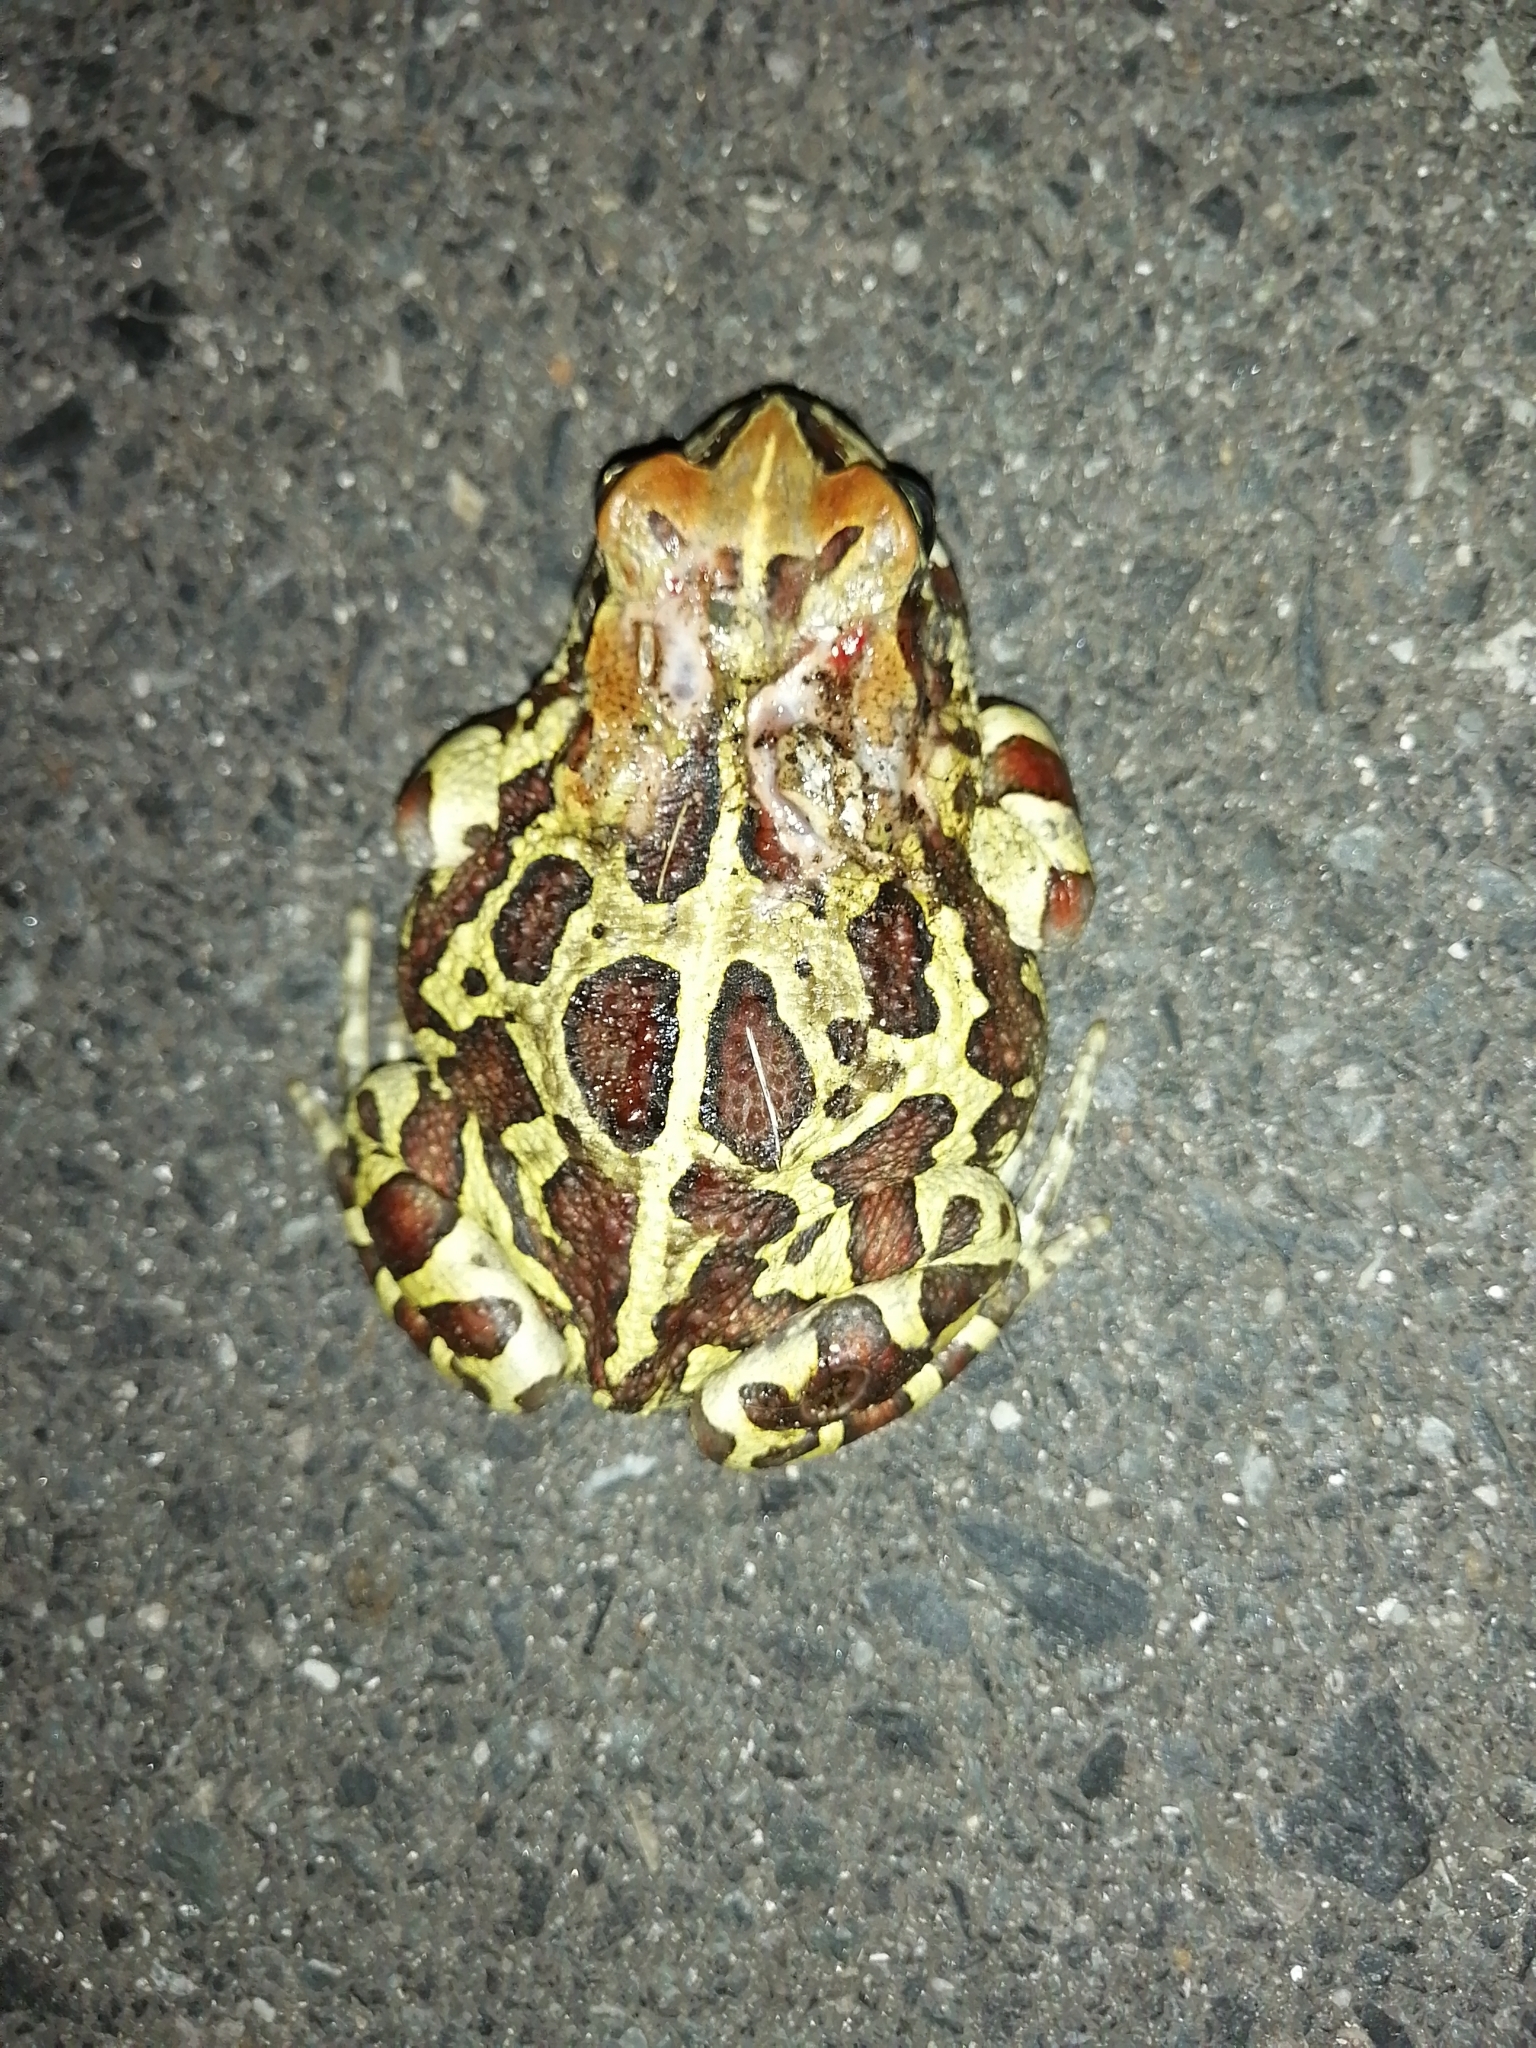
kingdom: Animalia
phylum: Chordata
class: Amphibia
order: Anura
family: Bufonidae
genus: Sclerophrys
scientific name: Sclerophrys pantherina
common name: Panther toad
